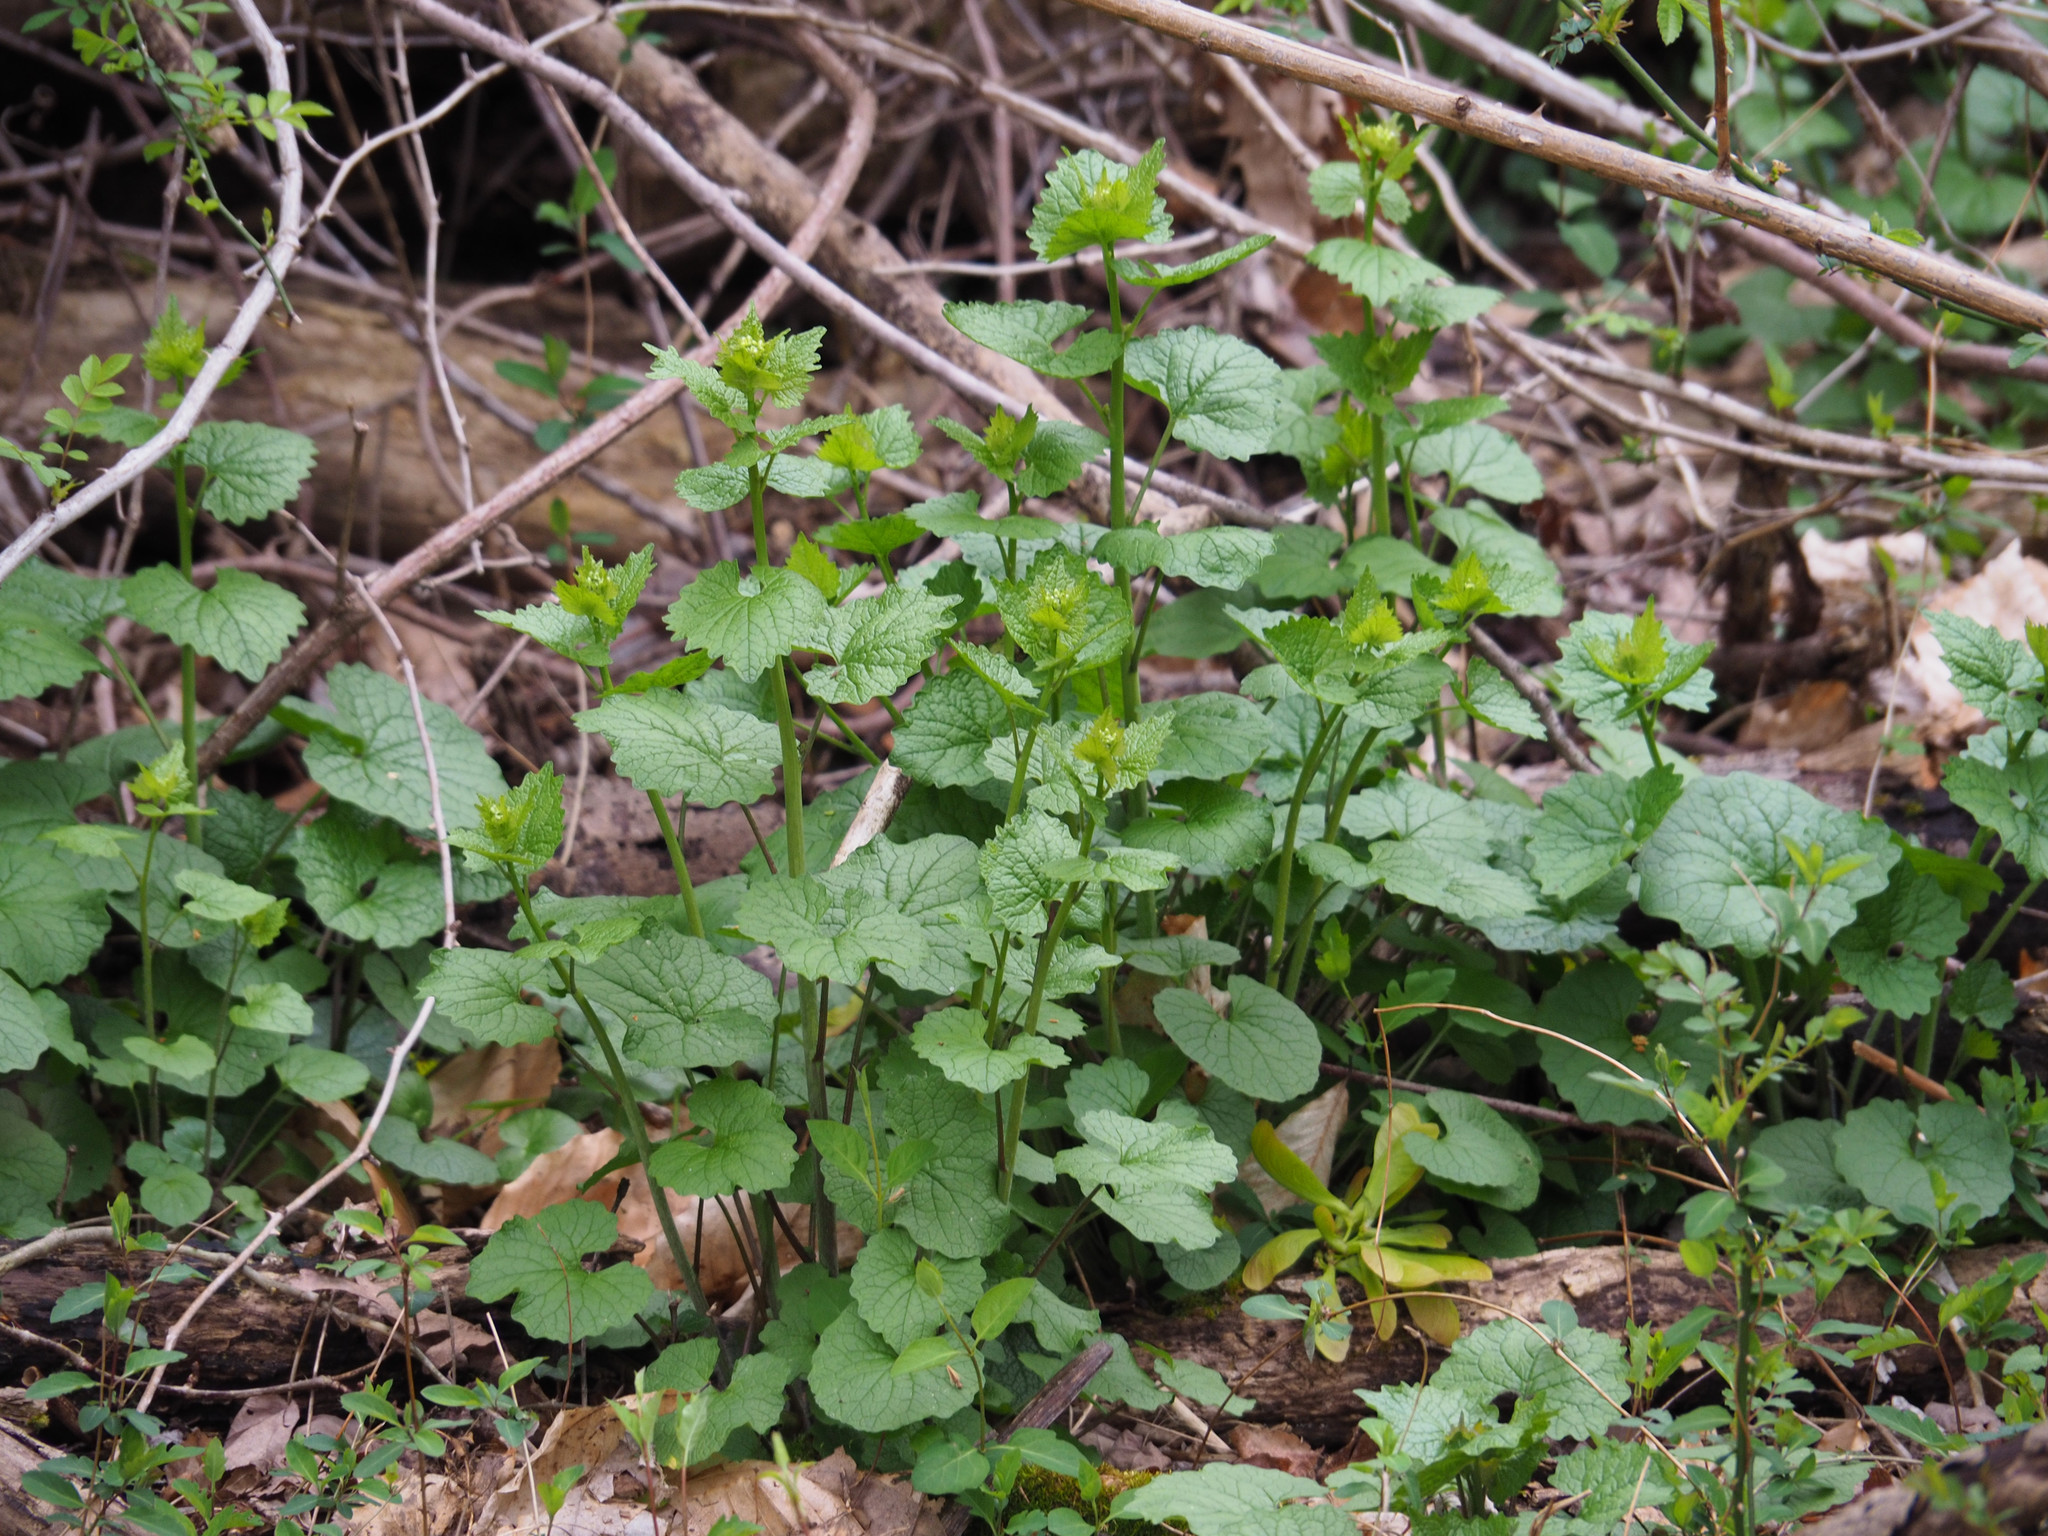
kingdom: Plantae
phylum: Tracheophyta
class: Magnoliopsida
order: Brassicales
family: Brassicaceae
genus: Alliaria
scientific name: Alliaria petiolata
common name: Garlic mustard
